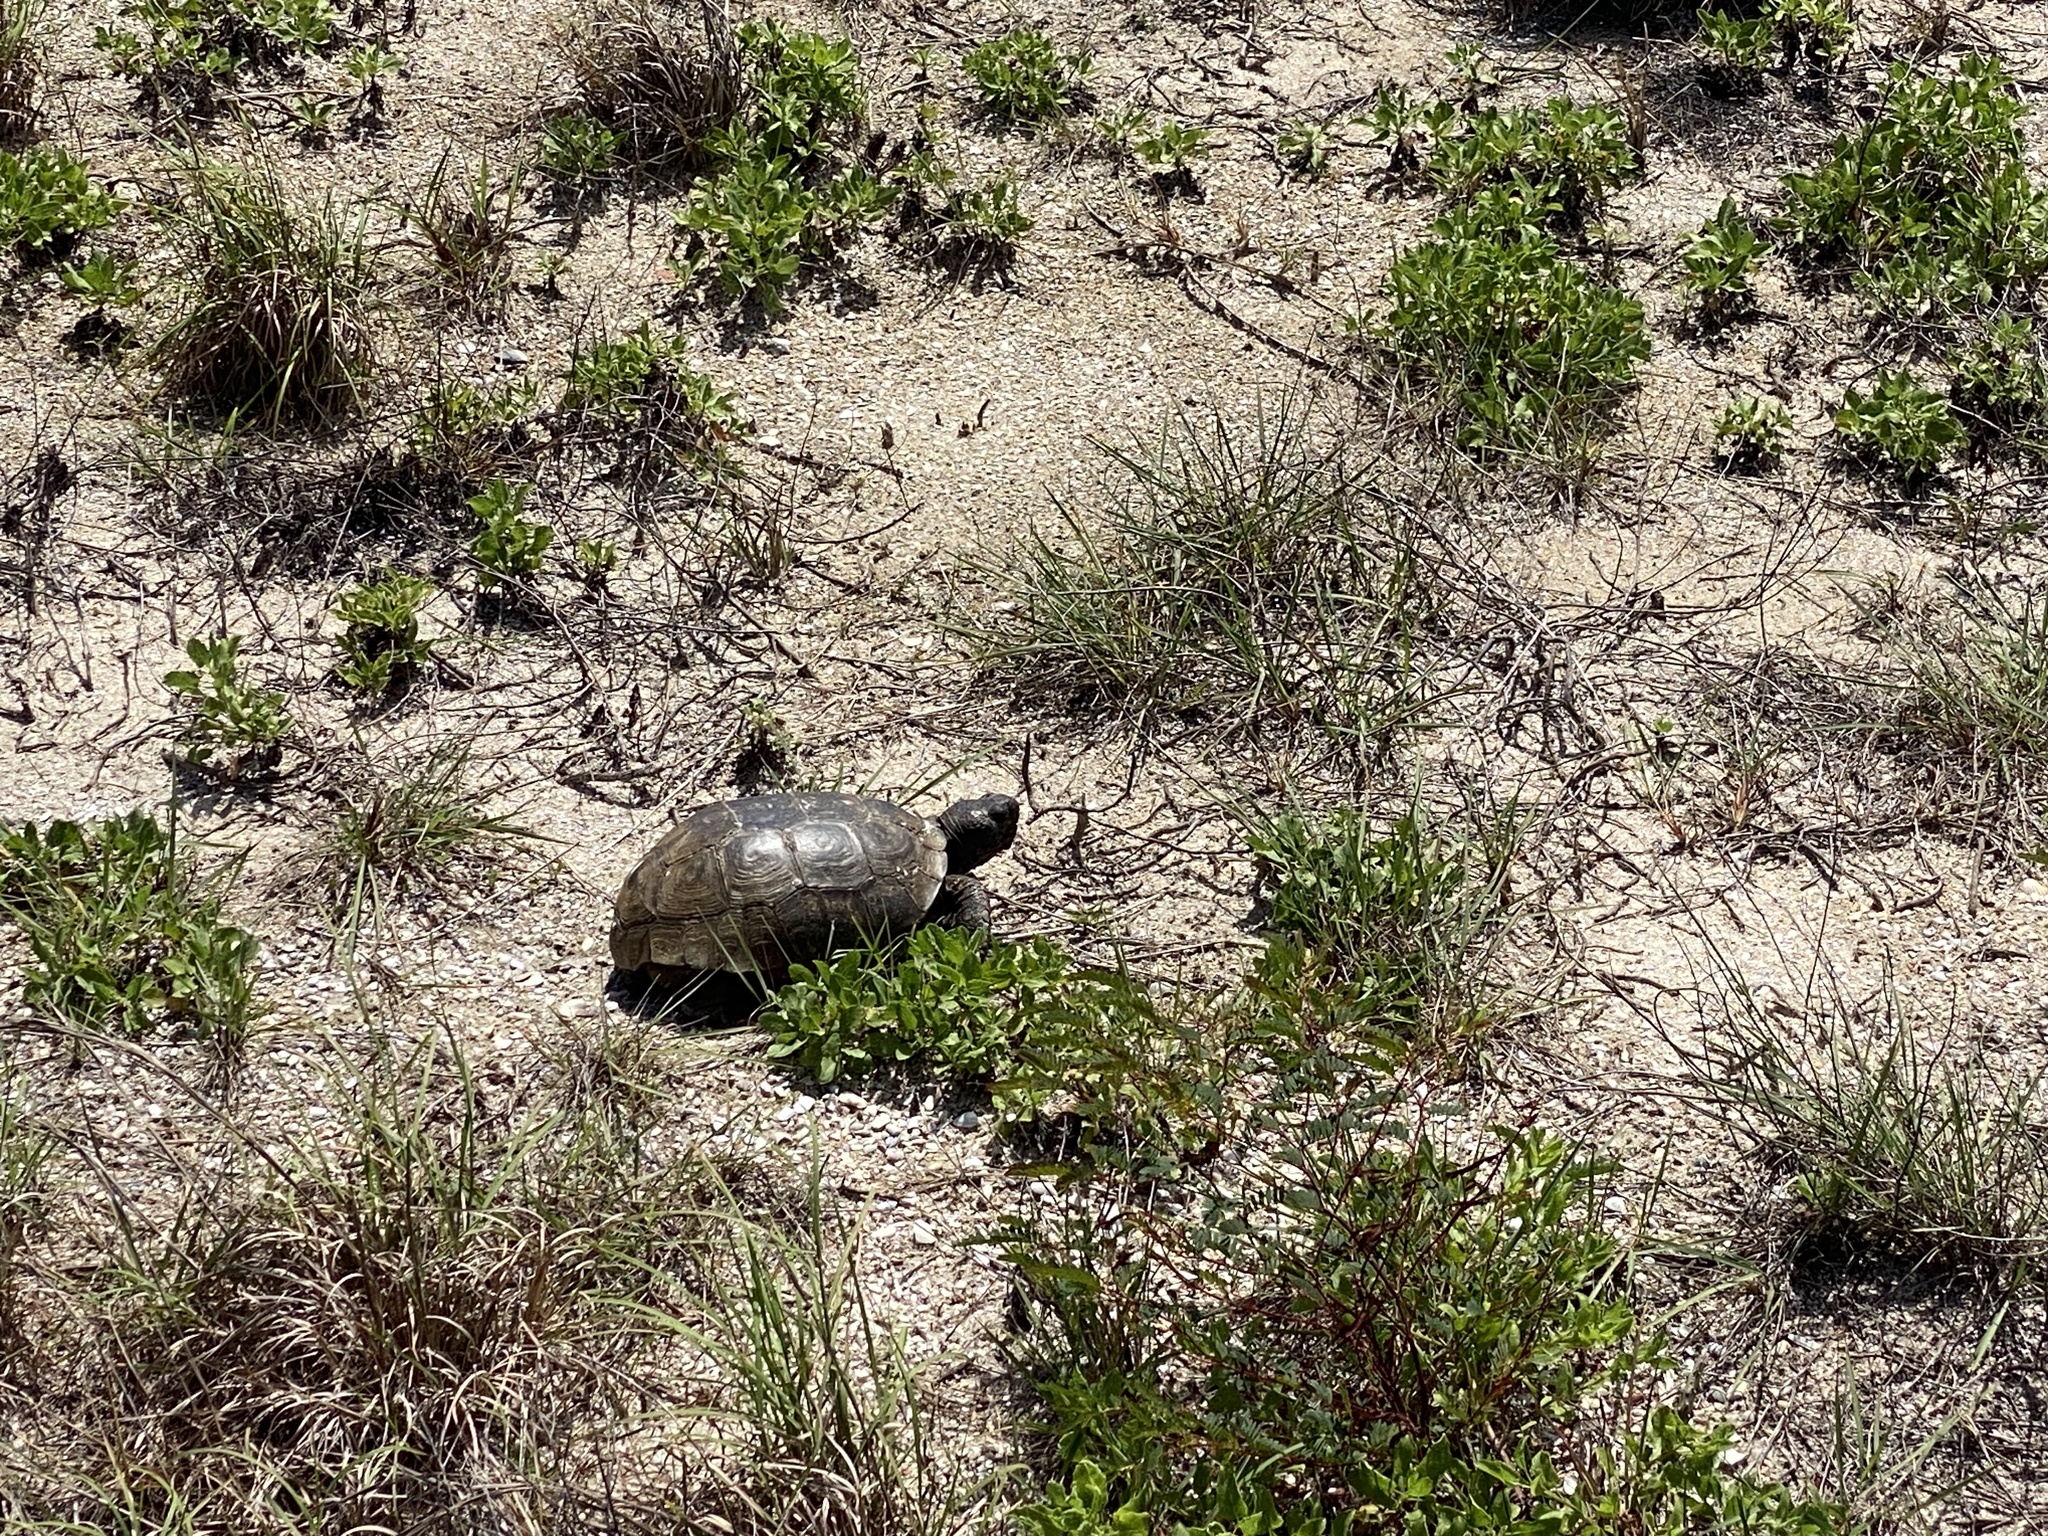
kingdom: Animalia
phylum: Chordata
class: Testudines
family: Testudinidae
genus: Gopherus
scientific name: Gopherus polyphemus
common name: Florida gopher tortoise
